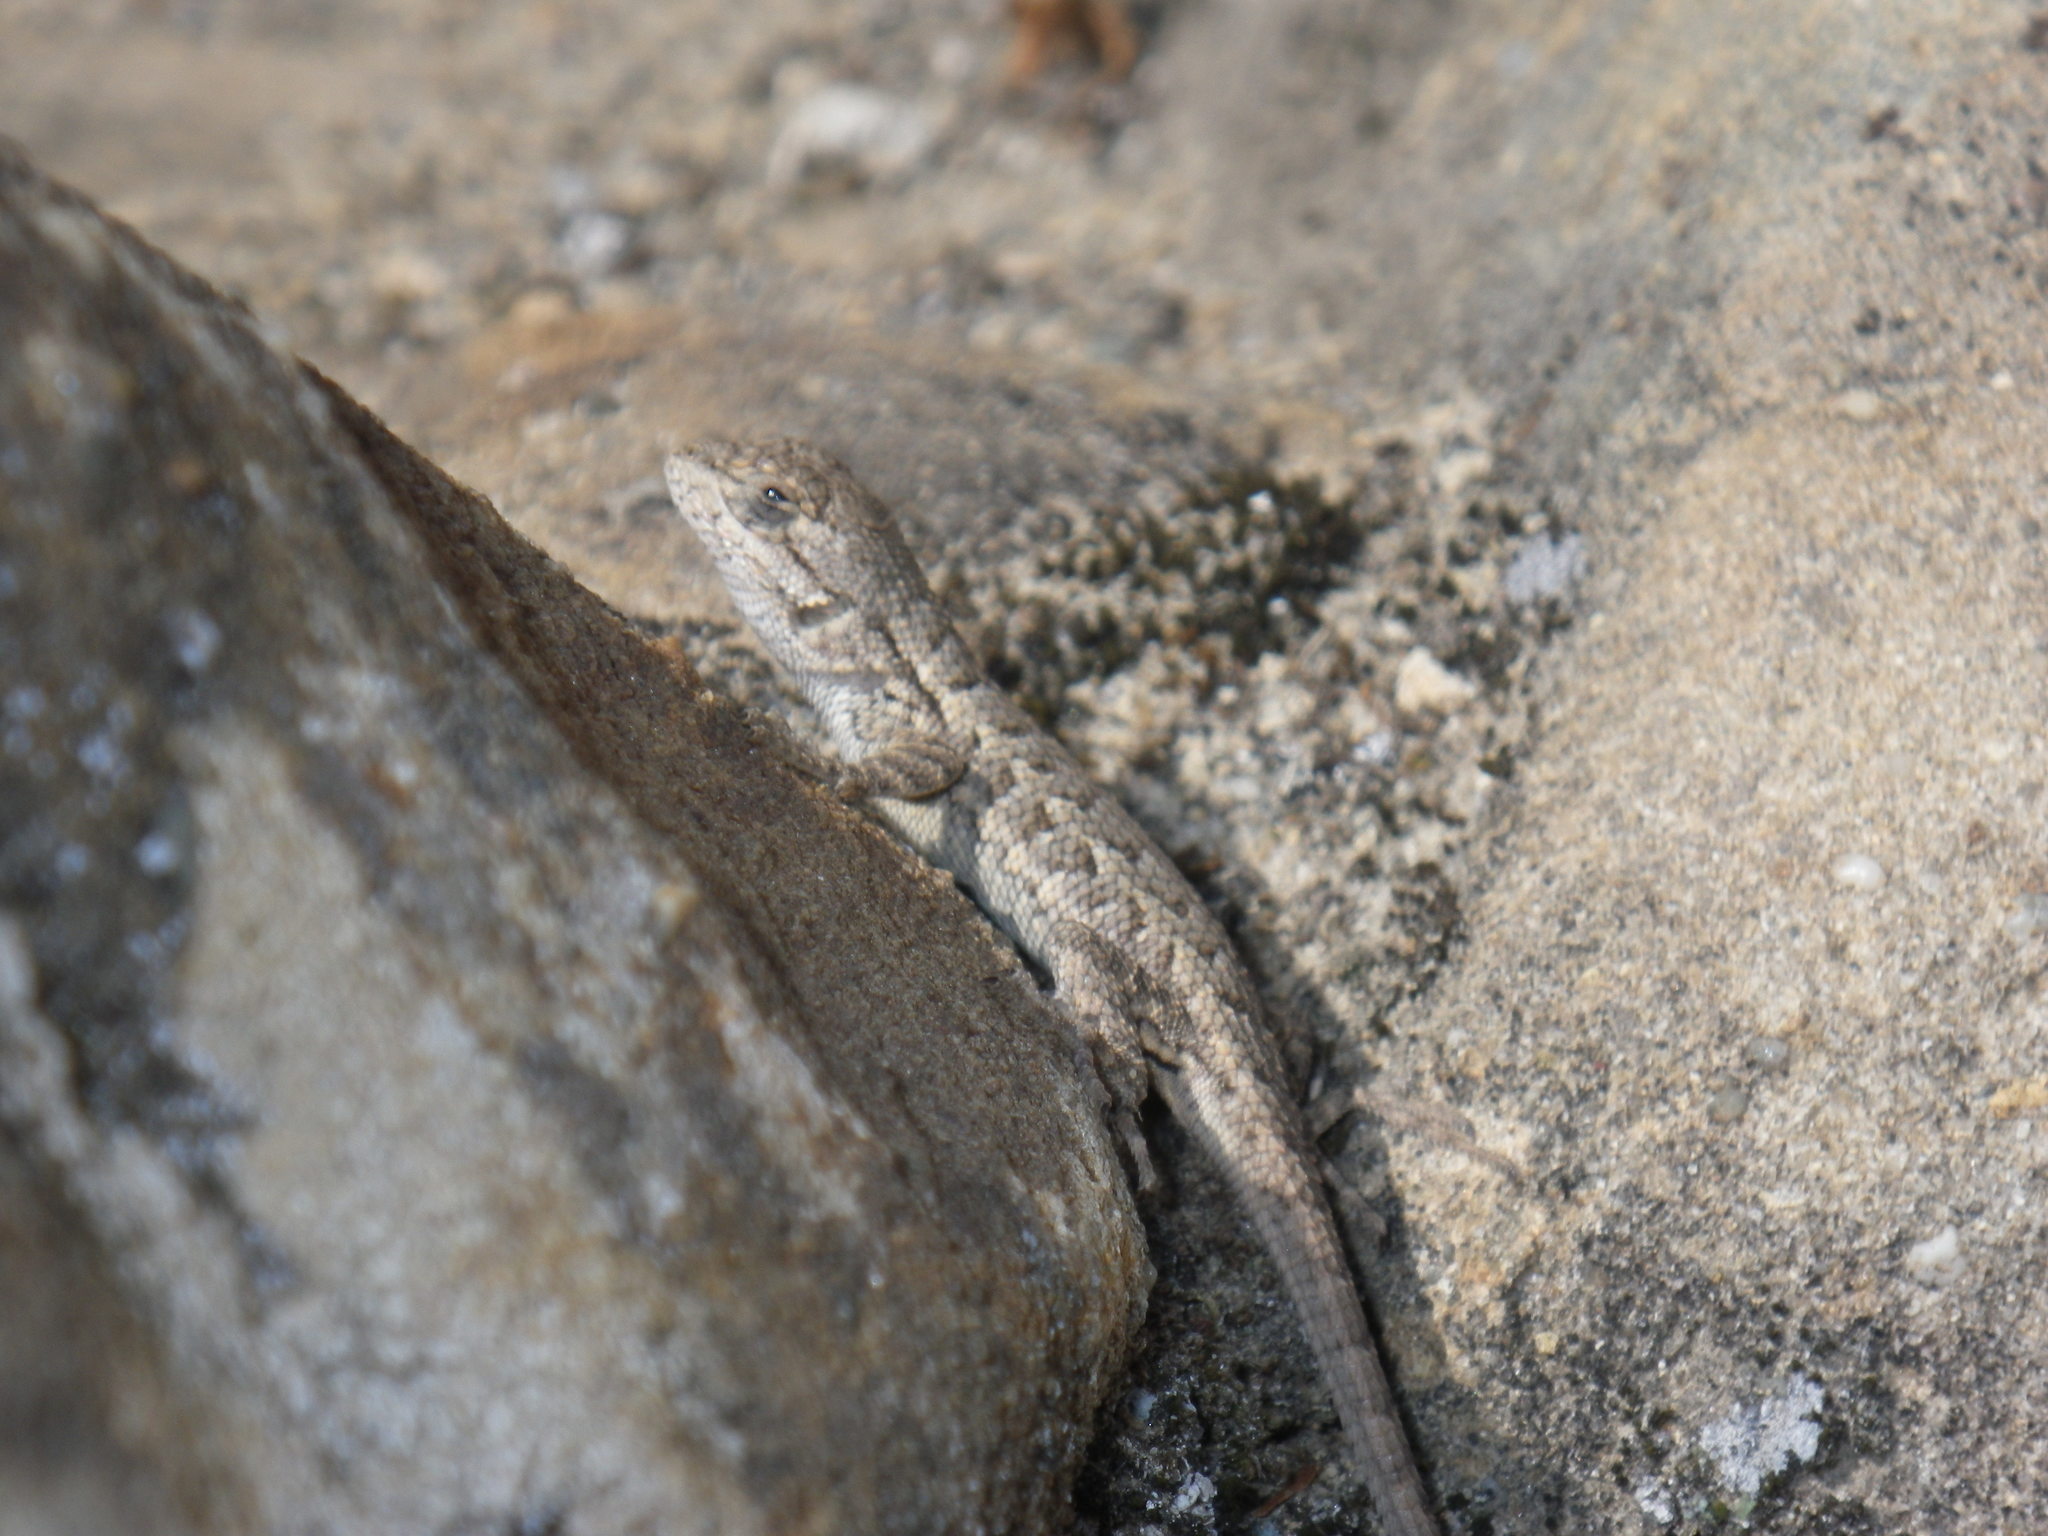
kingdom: Animalia
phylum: Chordata
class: Squamata
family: Phrynosomatidae
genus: Sceloporus
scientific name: Sceloporus occidentalis
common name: Western fence lizard
